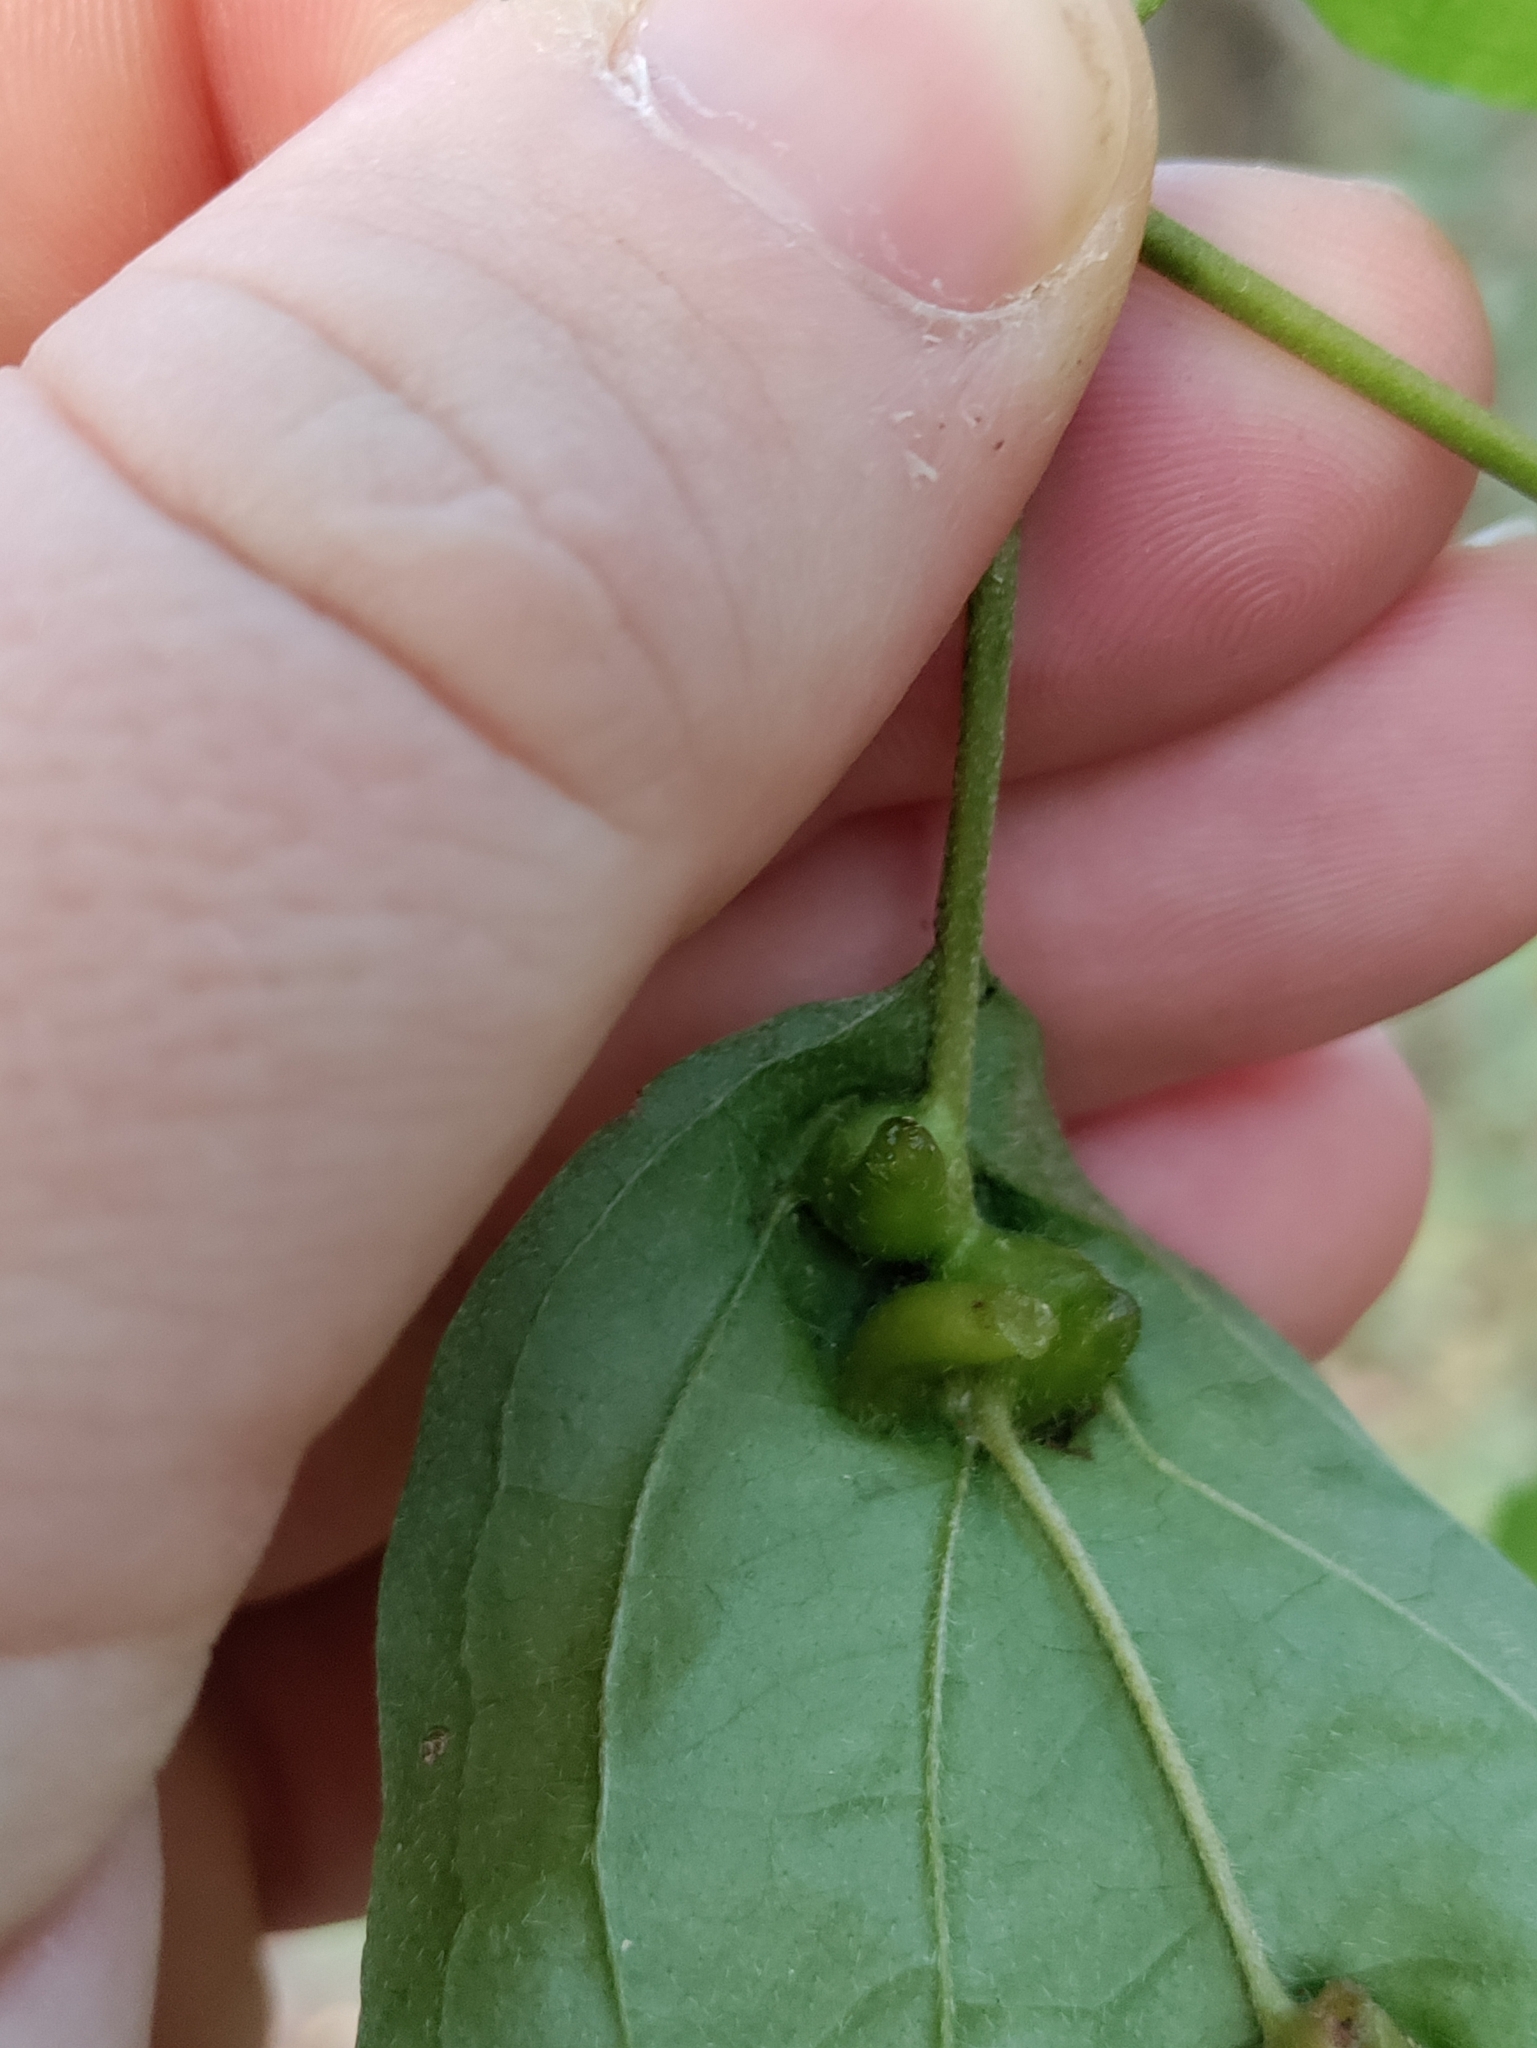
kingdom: Animalia
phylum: Arthropoda
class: Insecta
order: Diptera
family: Cecidomyiidae
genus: Craneiobia
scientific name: Craneiobia corni
